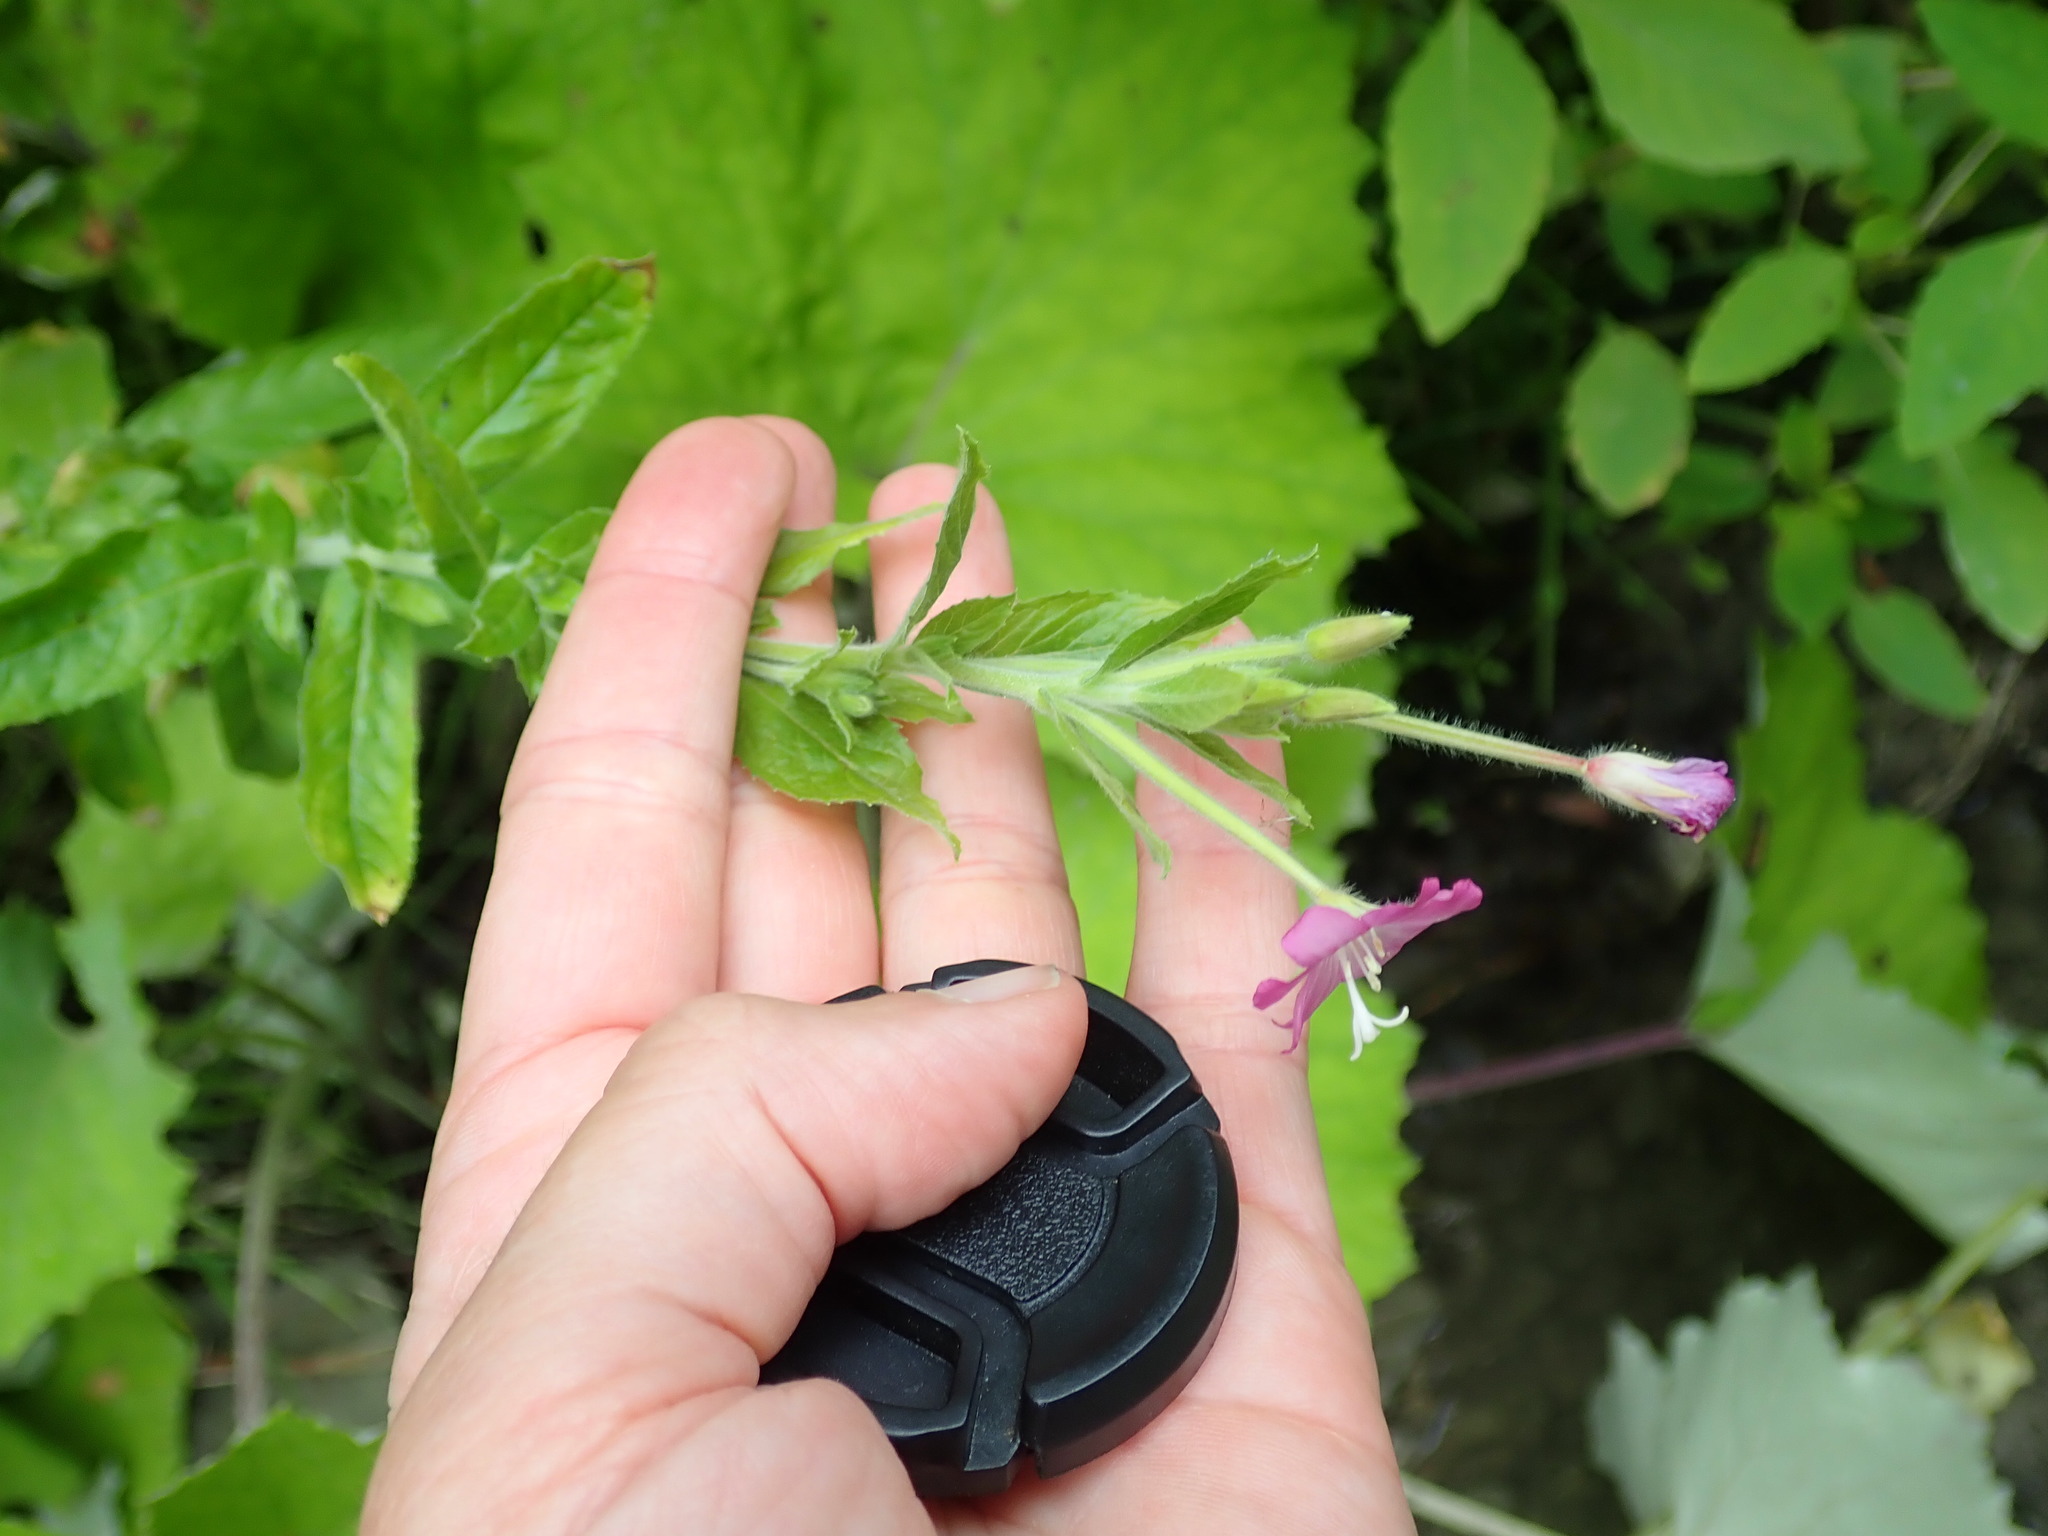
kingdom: Plantae
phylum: Tracheophyta
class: Magnoliopsida
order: Myrtales
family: Onagraceae
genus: Epilobium
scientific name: Epilobium hirsutum
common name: Great willowherb
